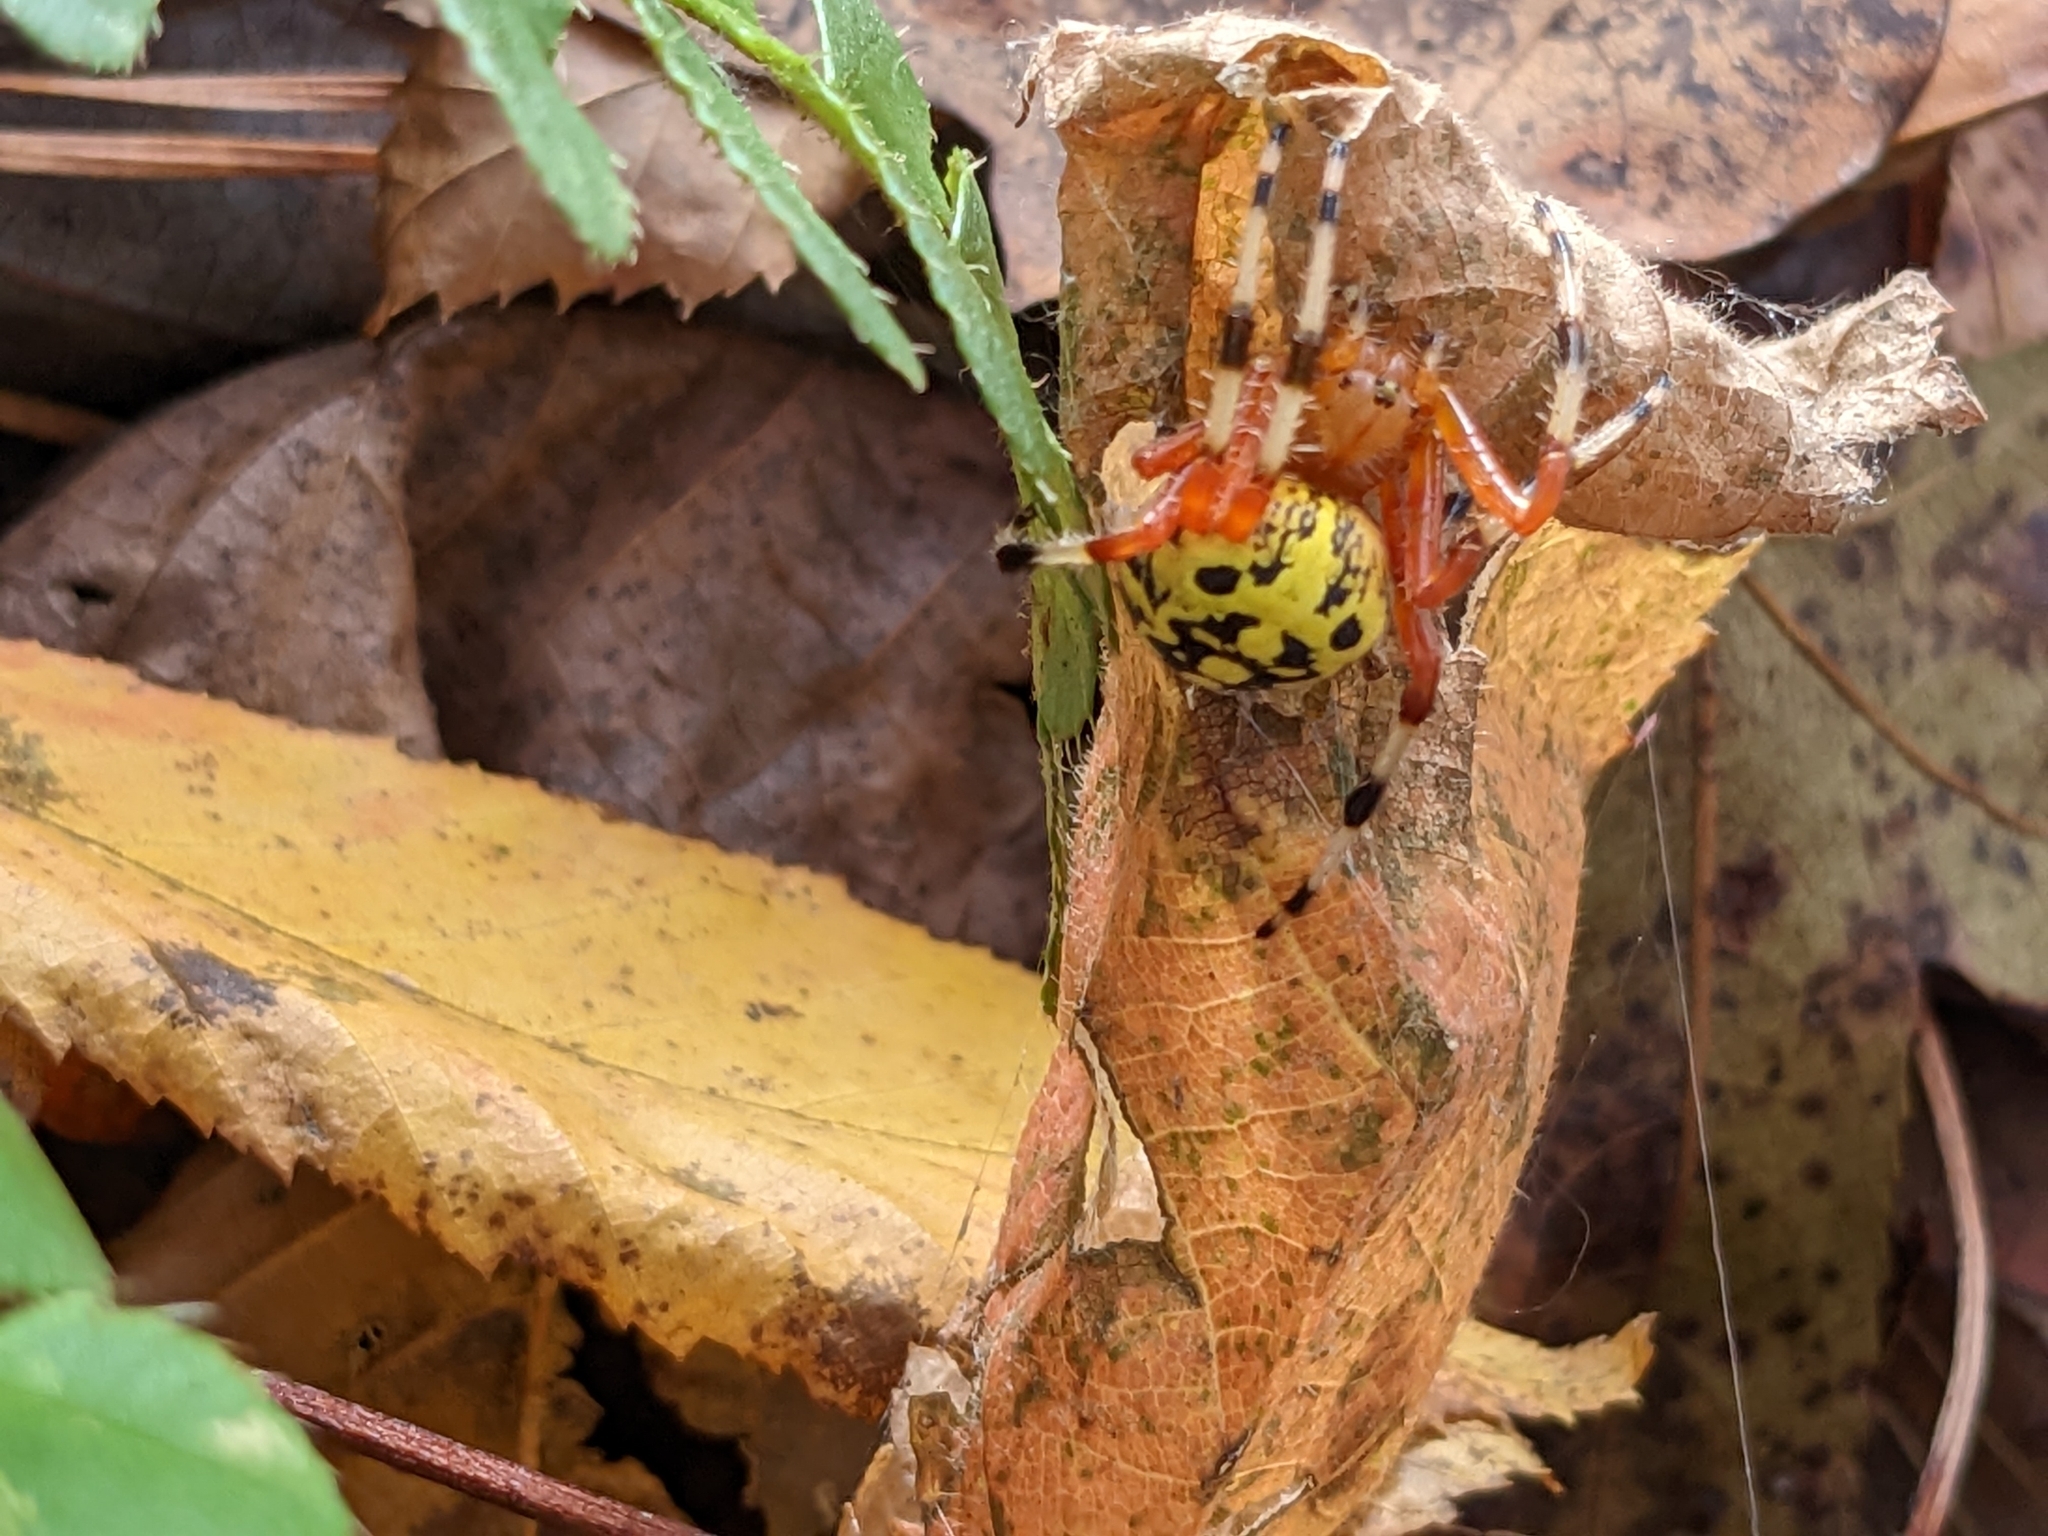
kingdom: Animalia
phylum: Arthropoda
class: Arachnida
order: Araneae
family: Araneidae
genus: Araneus
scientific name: Araneus marmoreus
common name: Marbled orbweaver
